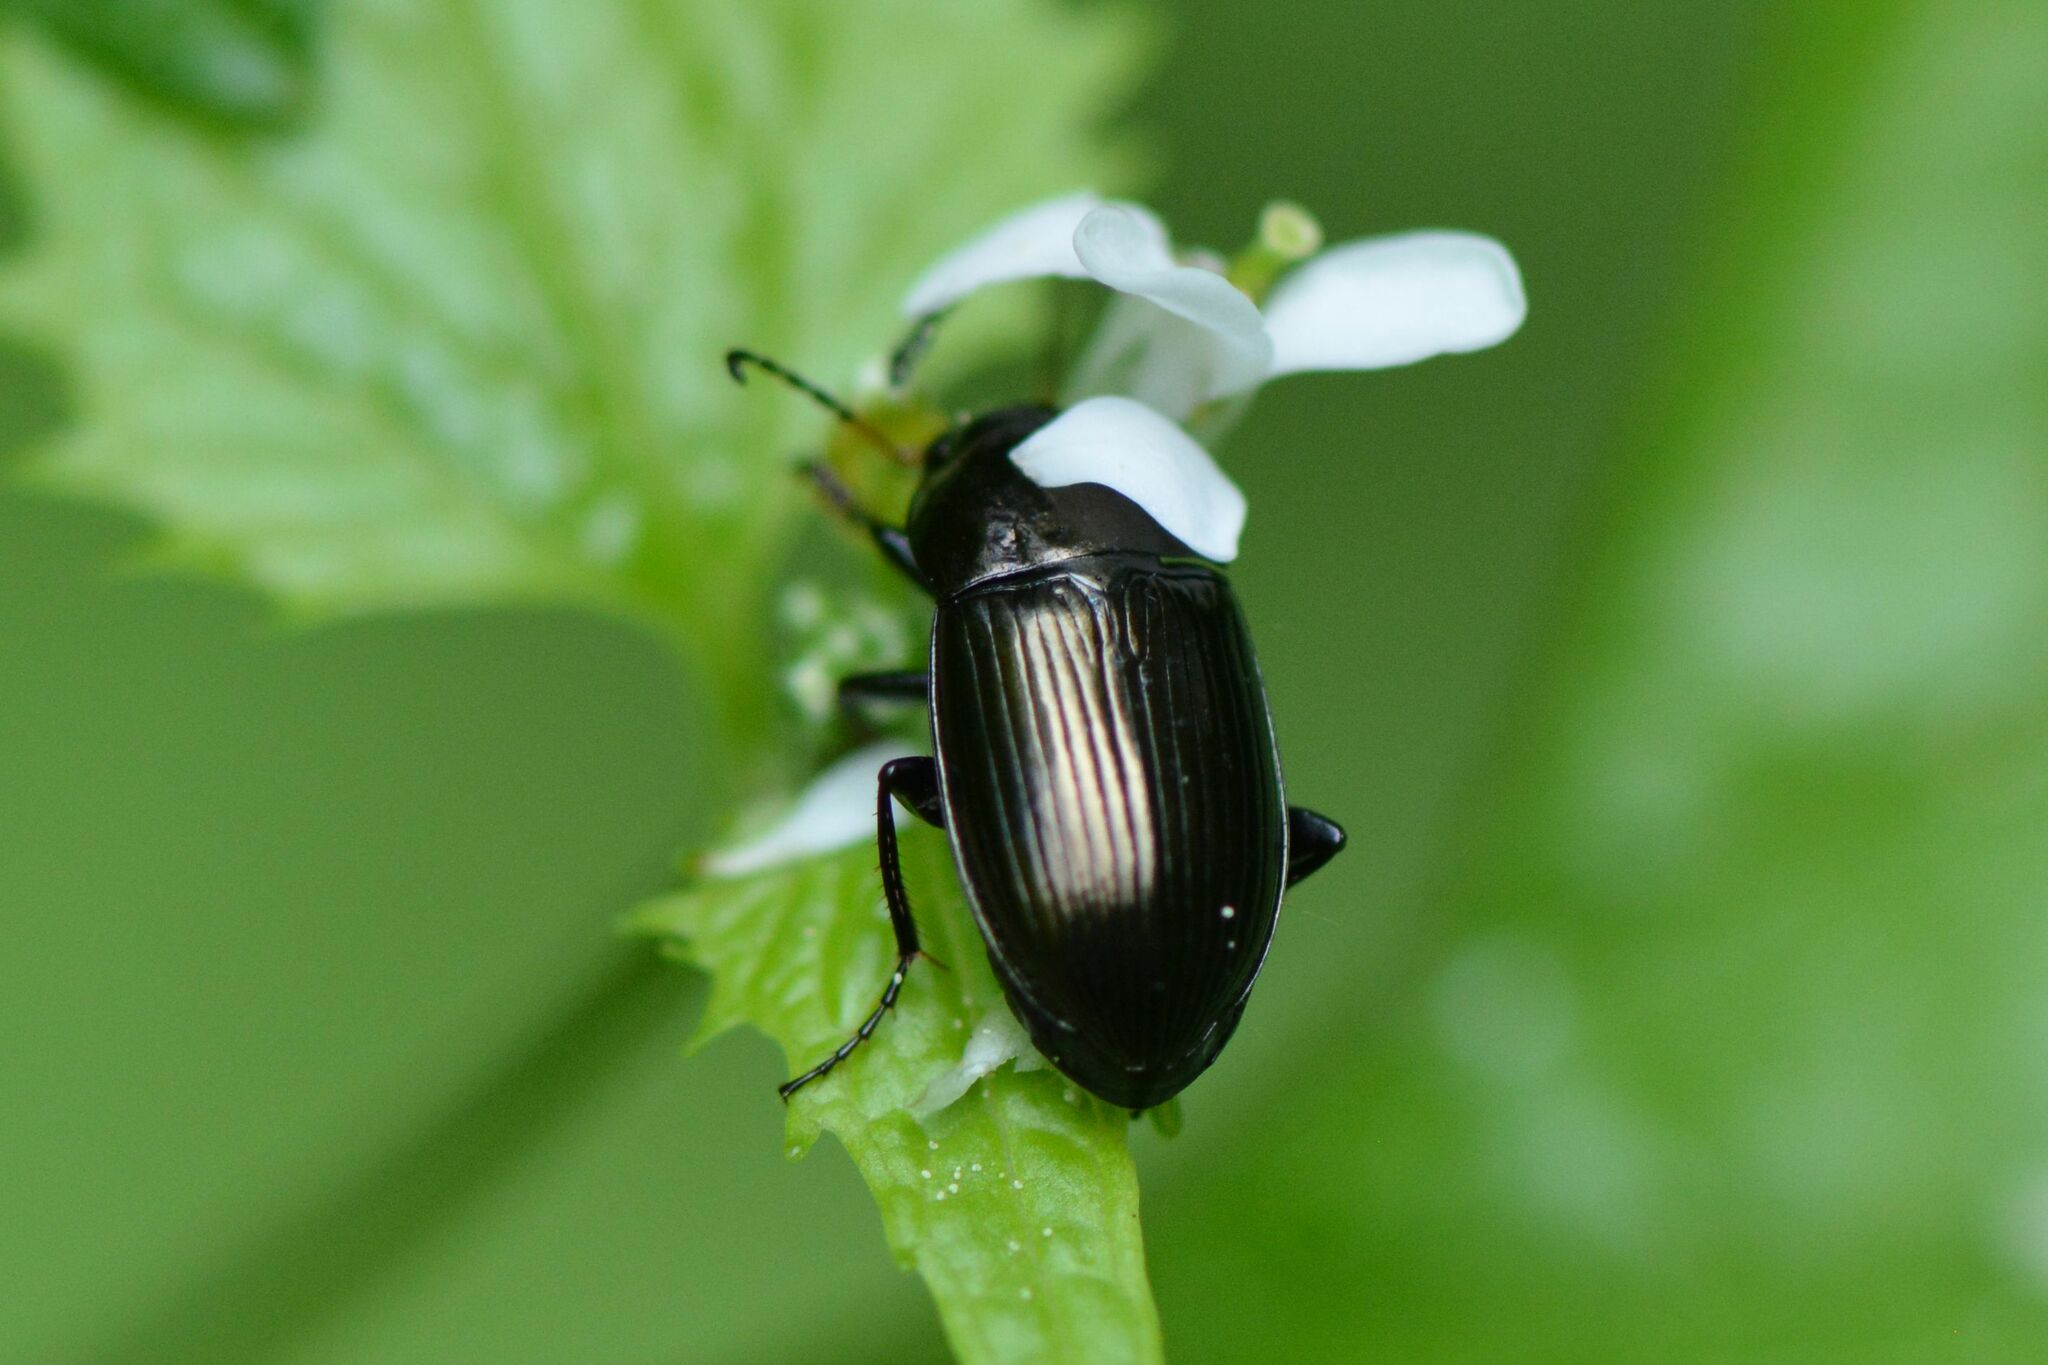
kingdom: Animalia
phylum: Arthropoda
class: Insecta
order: Coleoptera
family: Carabidae
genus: Amara
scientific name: Amara ovata
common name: Ovate harp ground beetle
